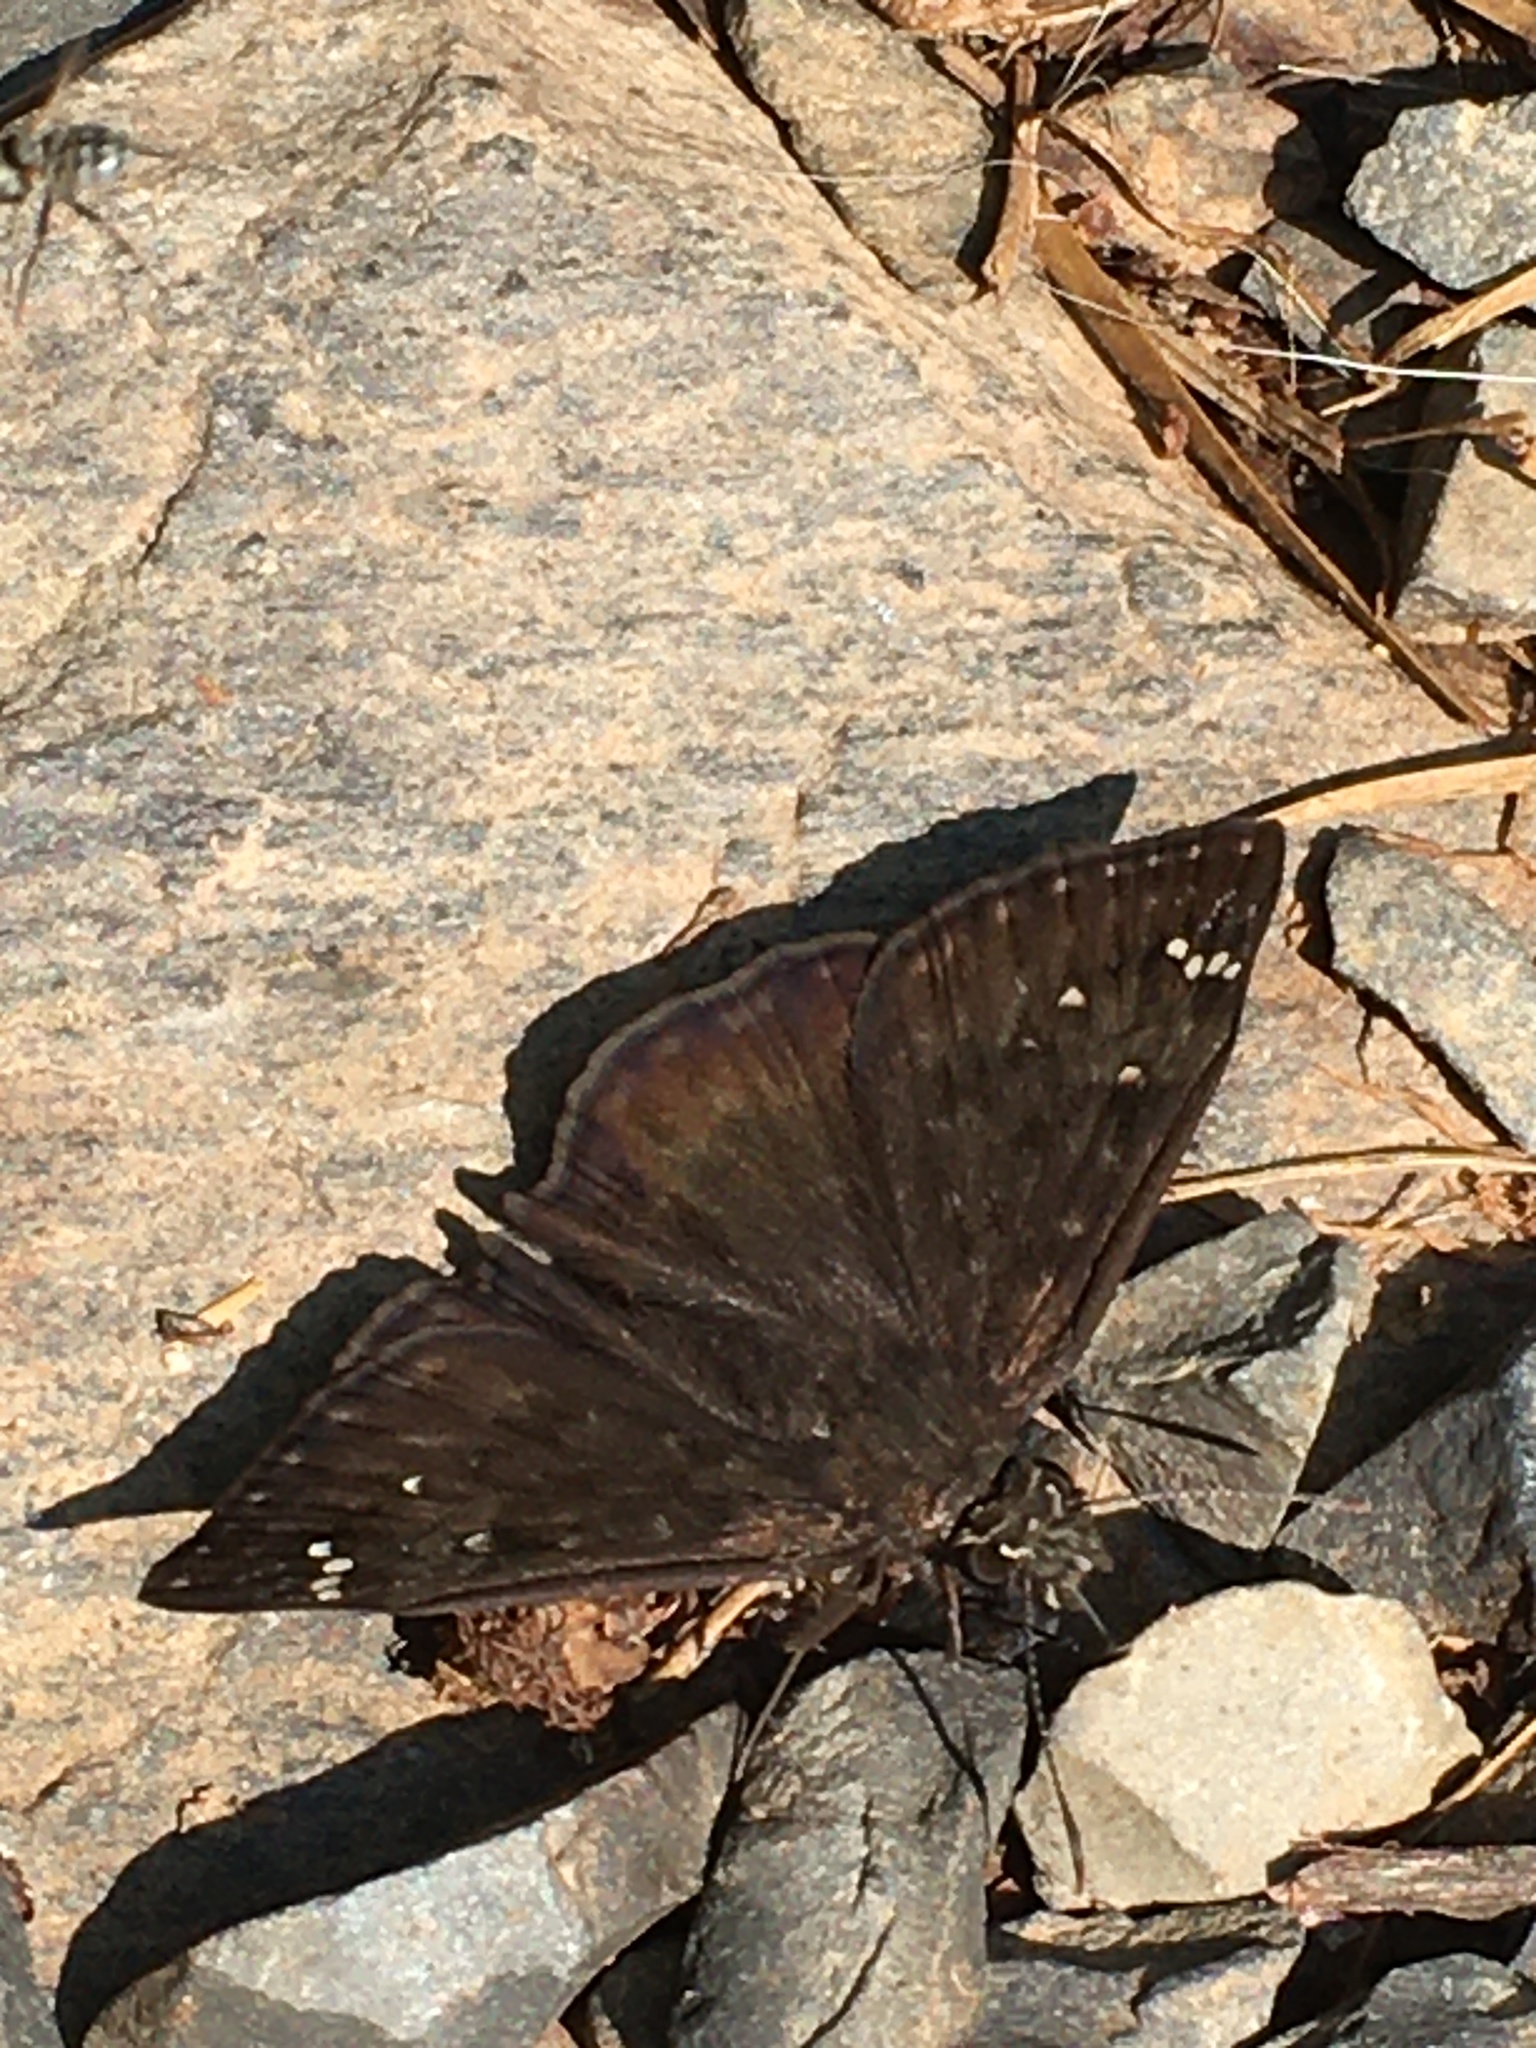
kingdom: Animalia
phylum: Arthropoda
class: Insecta
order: Lepidoptera
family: Hesperiidae
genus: Erynnis
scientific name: Erynnis horatius
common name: Horace's duskywing
